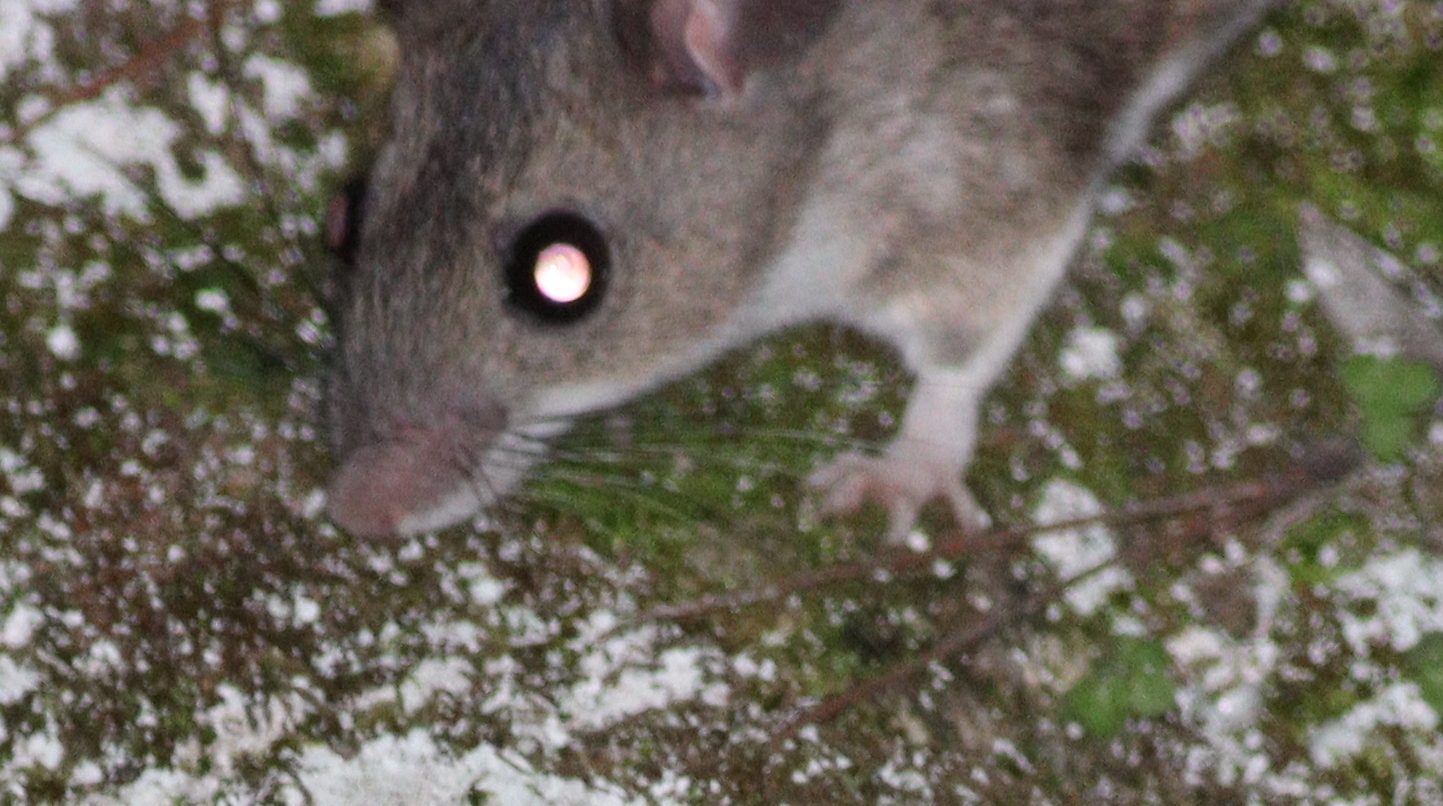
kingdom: Animalia
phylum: Chordata
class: Mammalia
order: Rodentia
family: Muridae
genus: Apodemus
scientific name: Apodemus mystacinus
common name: Eastern broad-toothed field mouse
